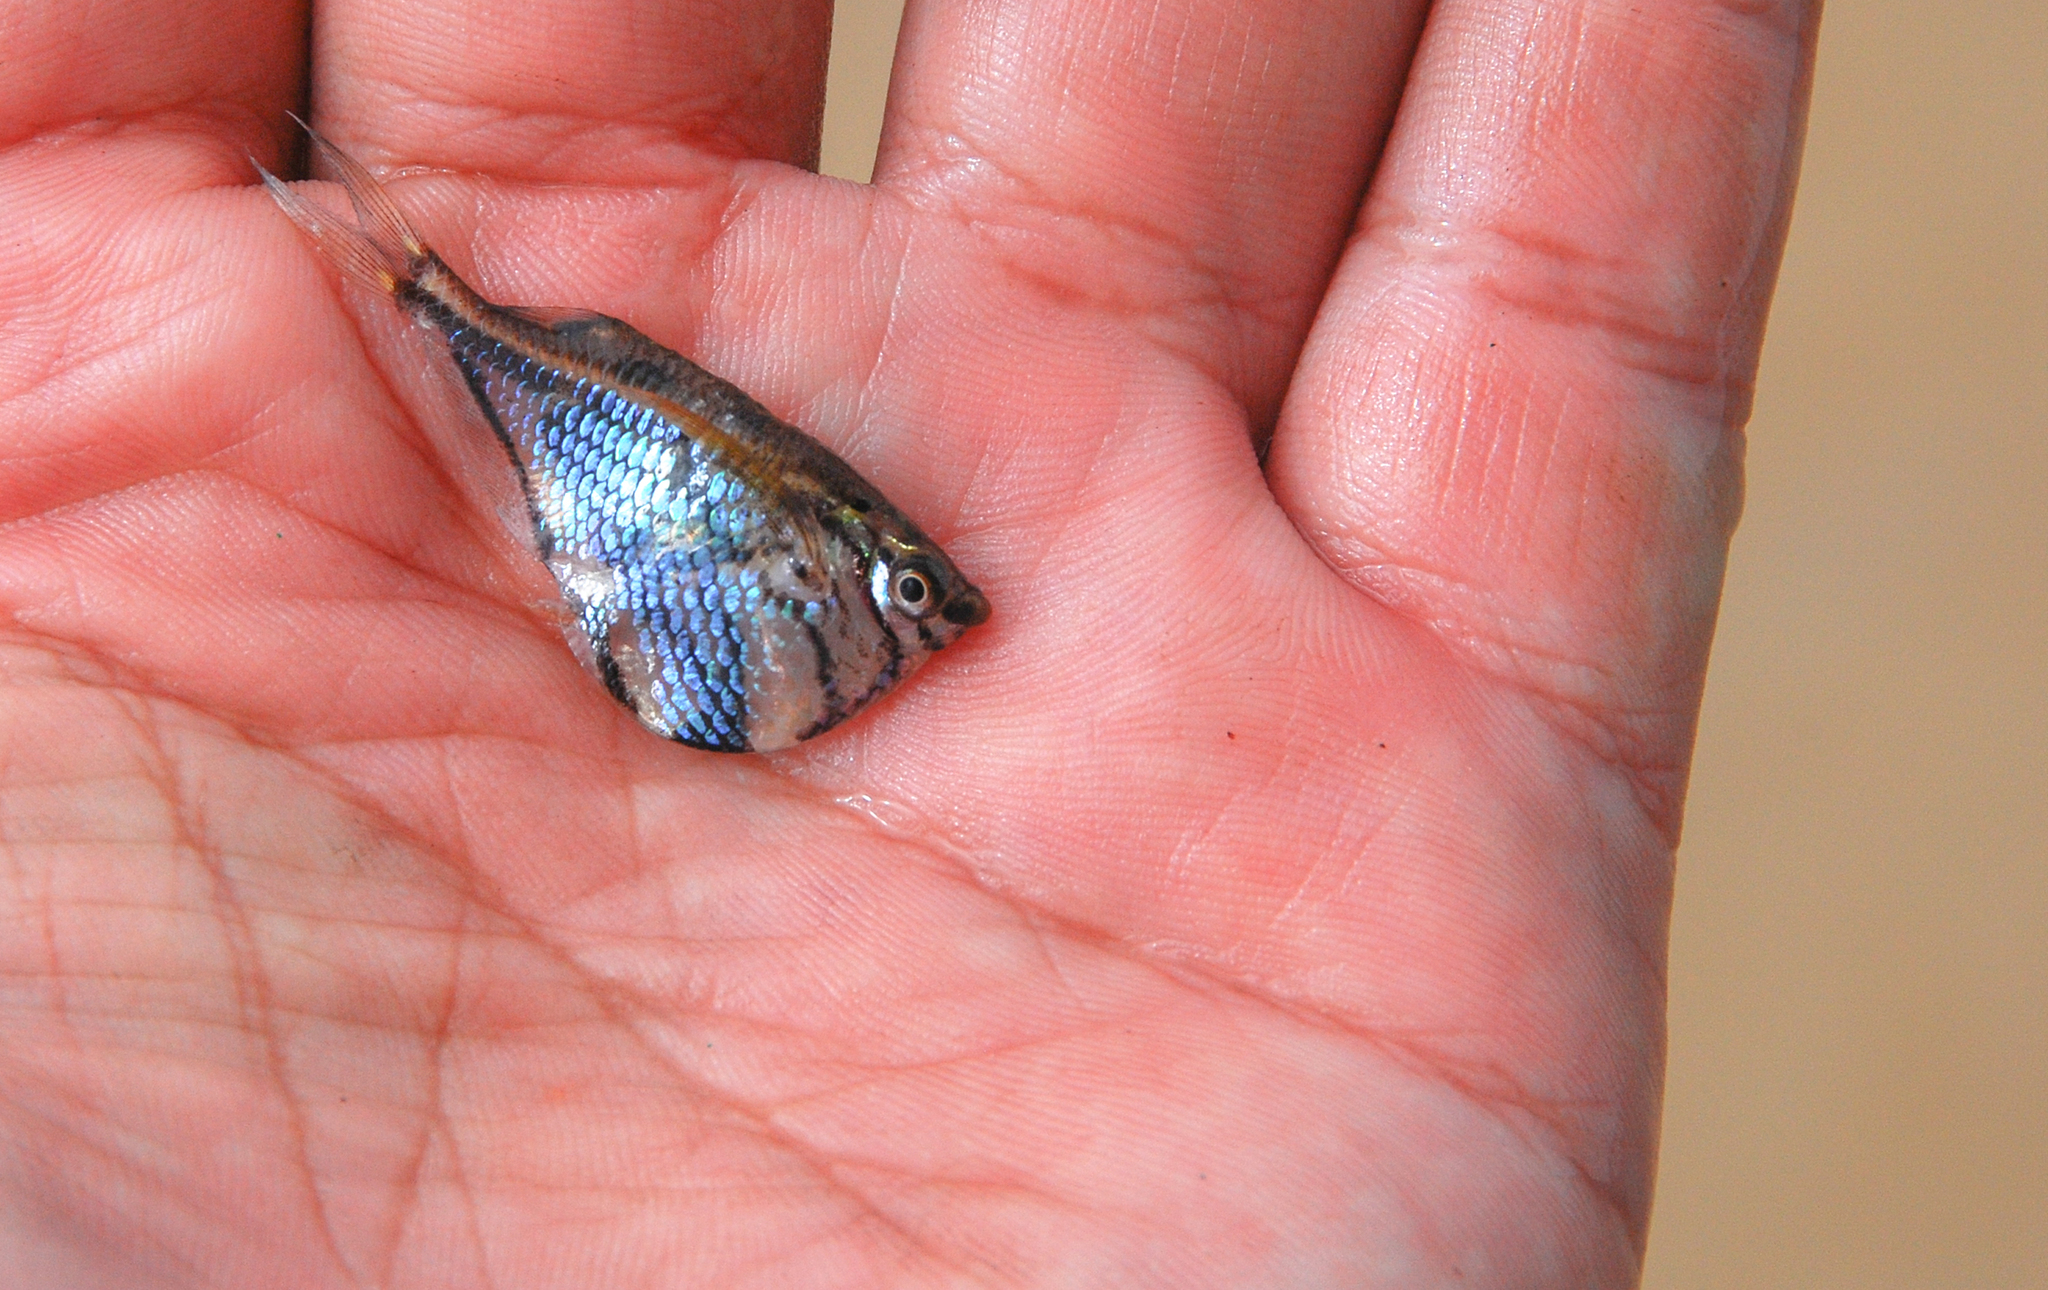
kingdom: Animalia
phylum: Chordata
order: Characiformes
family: Gasteropelecidae
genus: Carnegiella
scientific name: Carnegiella strigata
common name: Marbled hatchetfish
